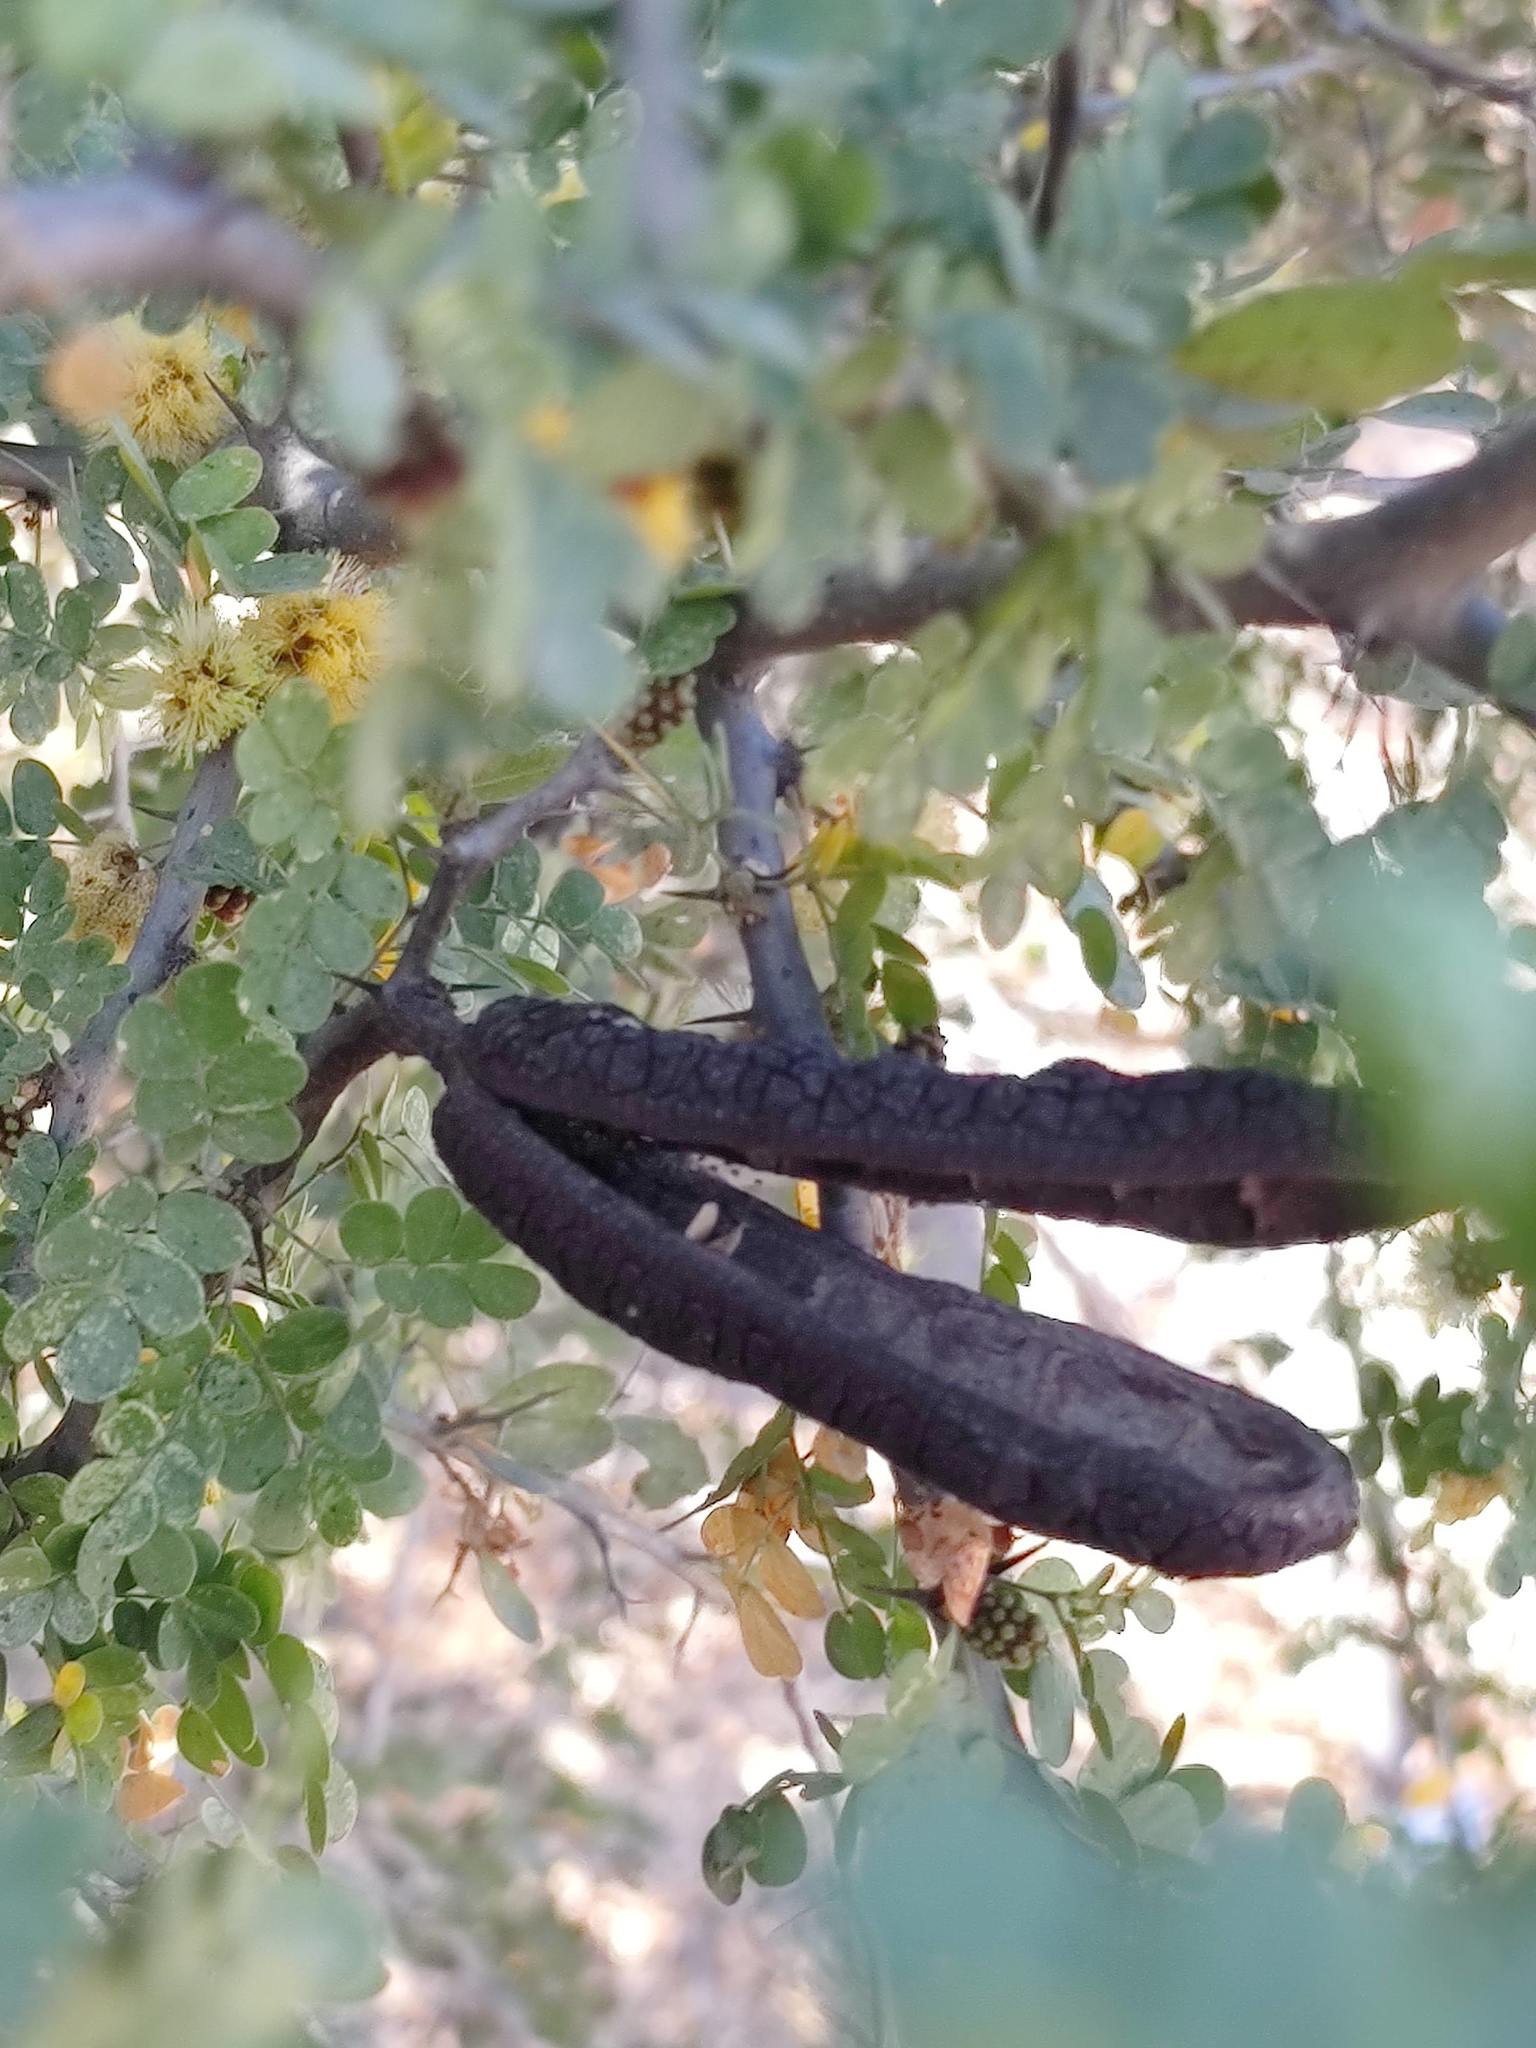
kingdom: Plantae
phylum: Tracheophyta
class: Magnoliopsida
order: Fabales
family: Fabaceae
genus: Ebenopsis
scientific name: Ebenopsis confinis
